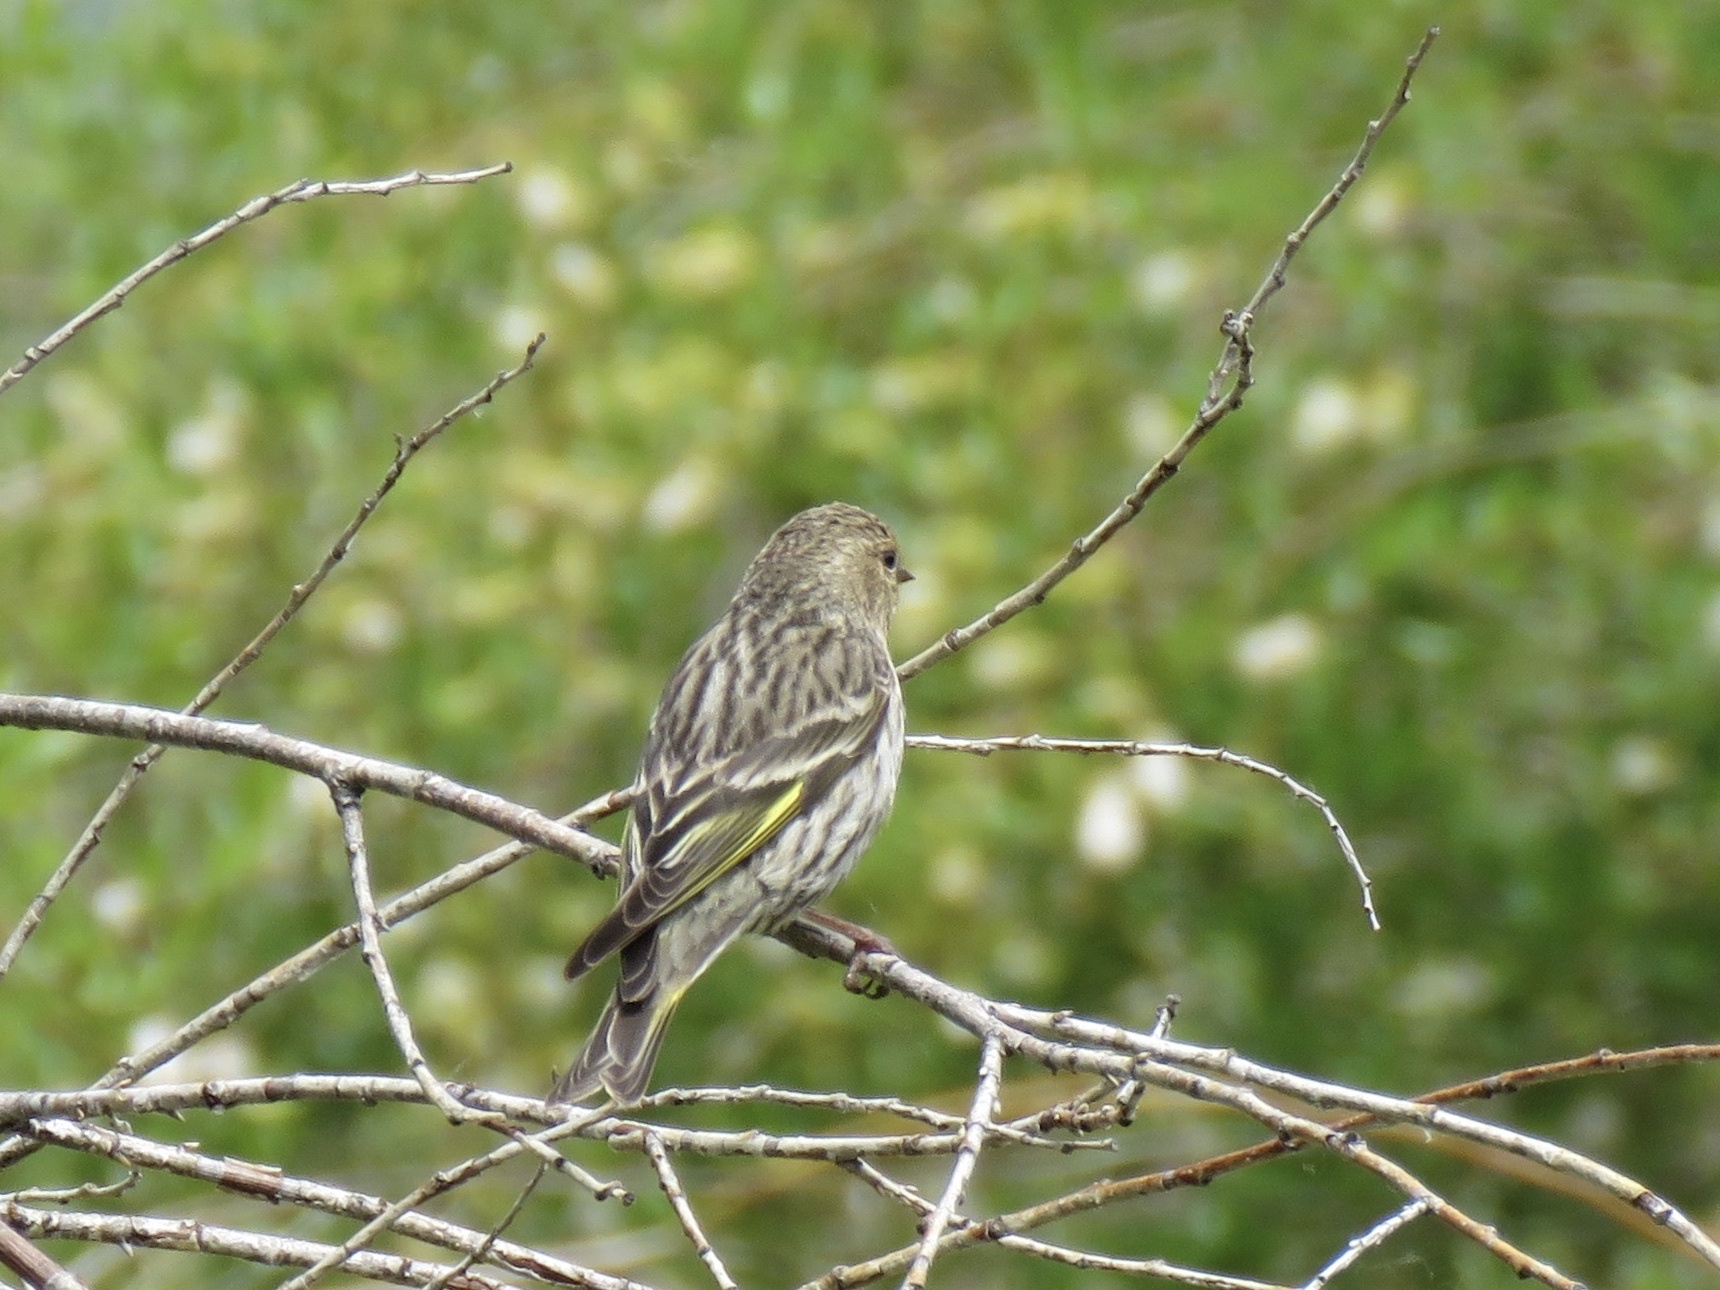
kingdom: Animalia
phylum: Chordata
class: Aves
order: Passeriformes
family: Fringillidae
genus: Spinus
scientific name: Spinus pinus
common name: Pine siskin
